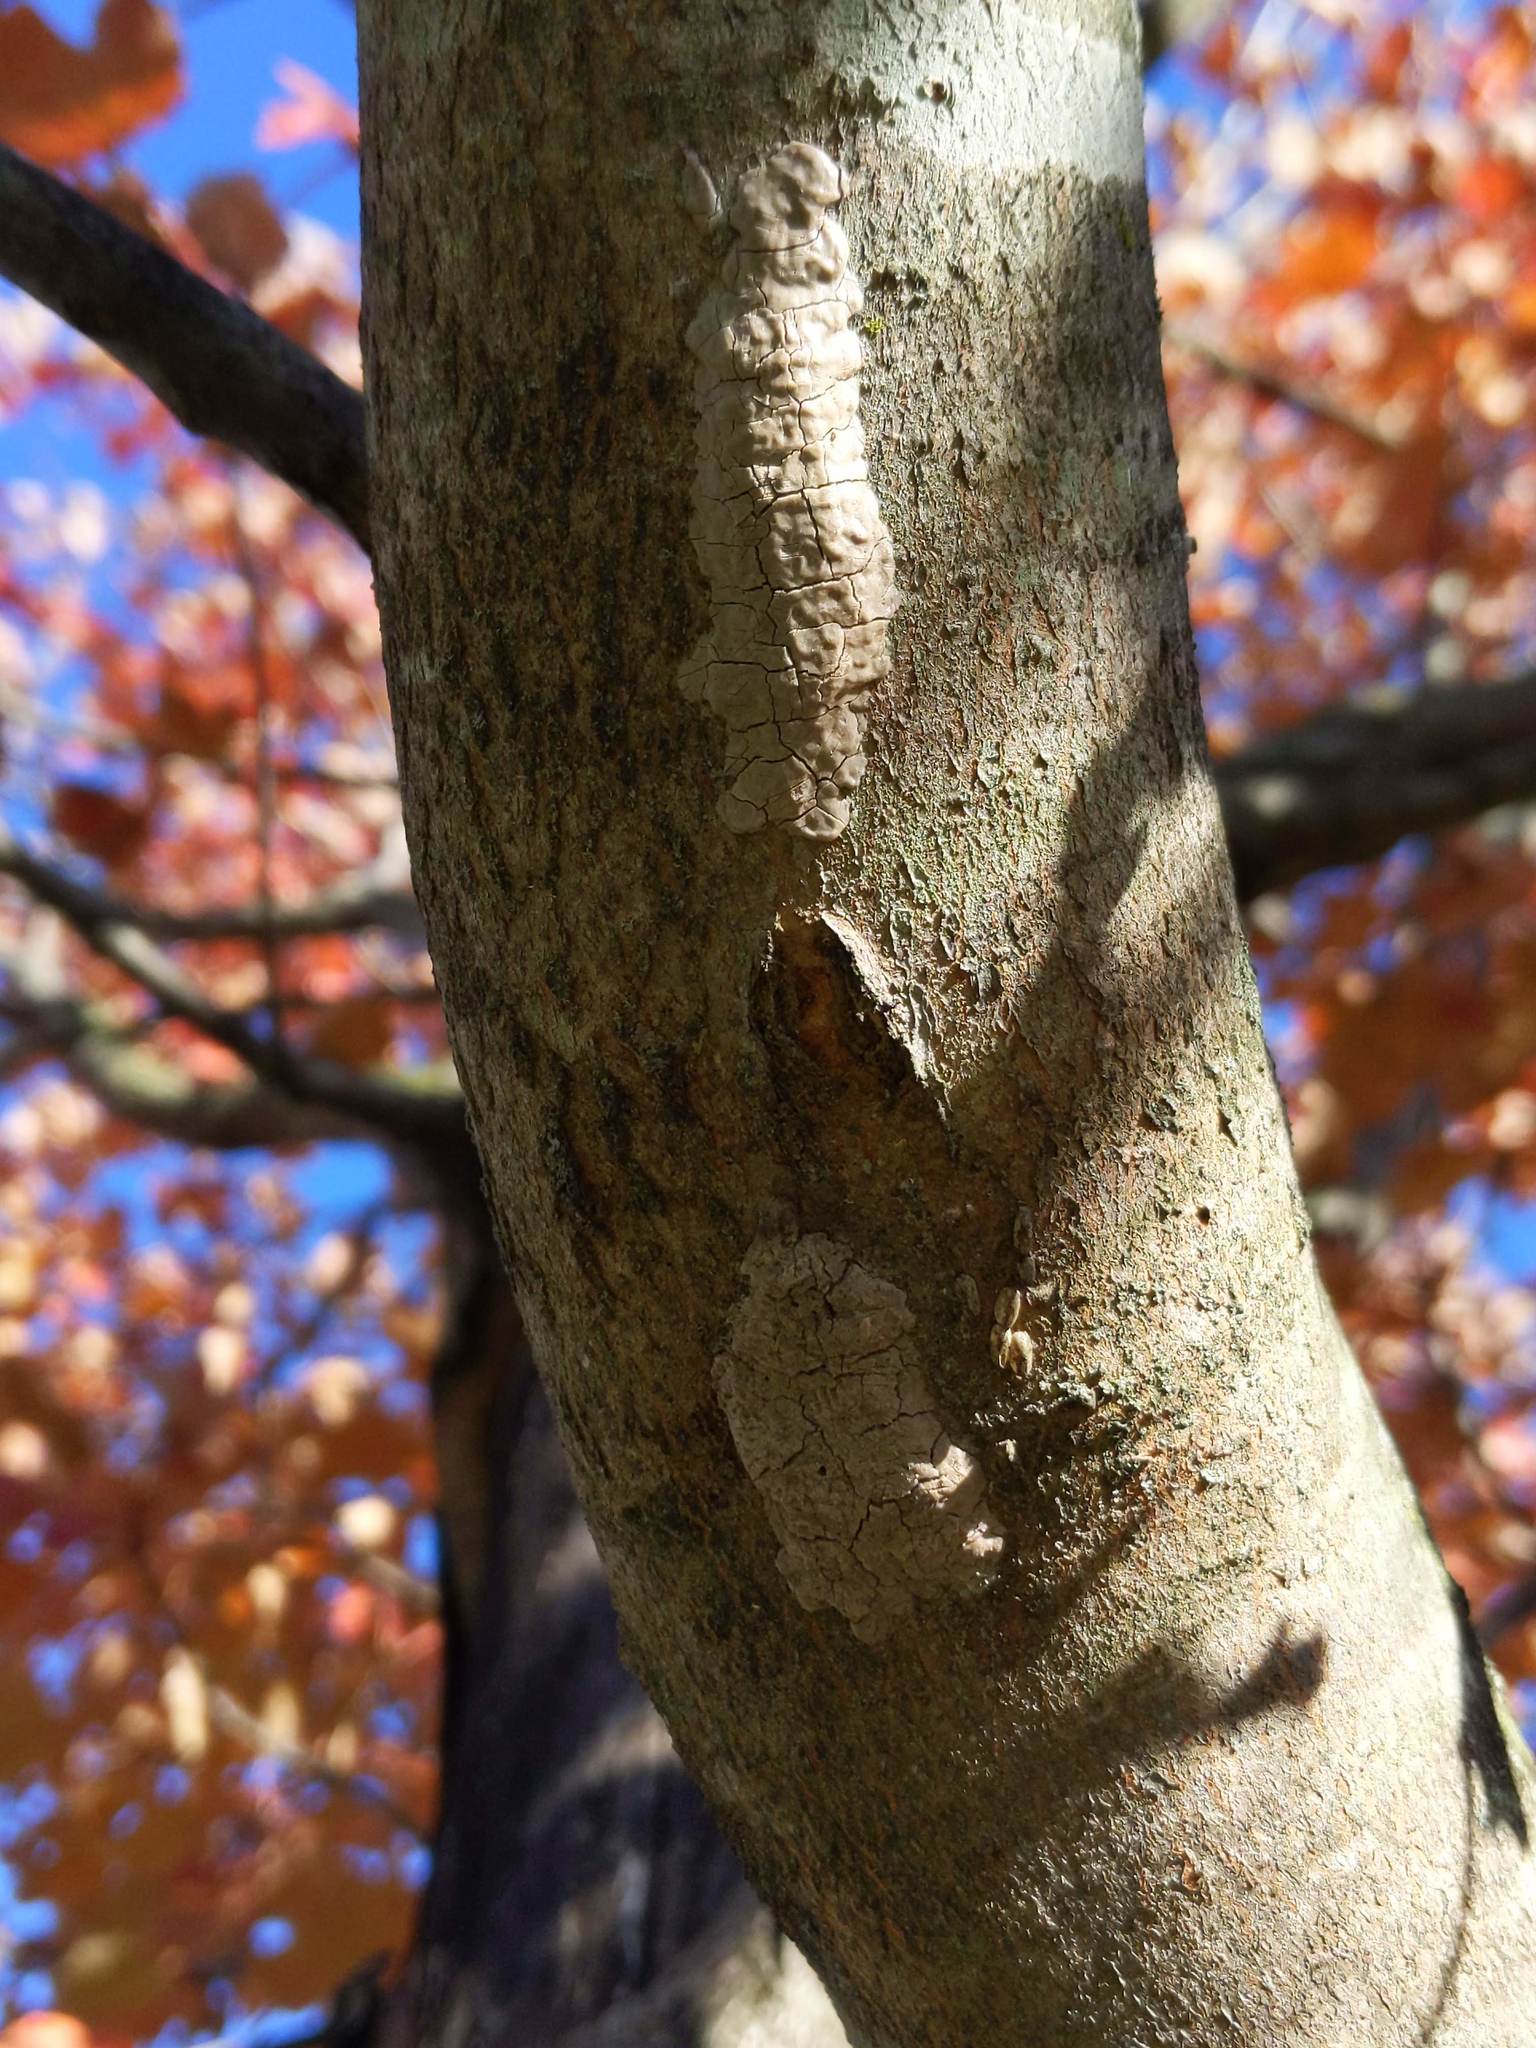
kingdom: Animalia
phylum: Arthropoda
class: Insecta
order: Hemiptera
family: Fulgoridae
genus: Lycorma
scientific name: Lycorma delicatula
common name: Spotted lanternfly
